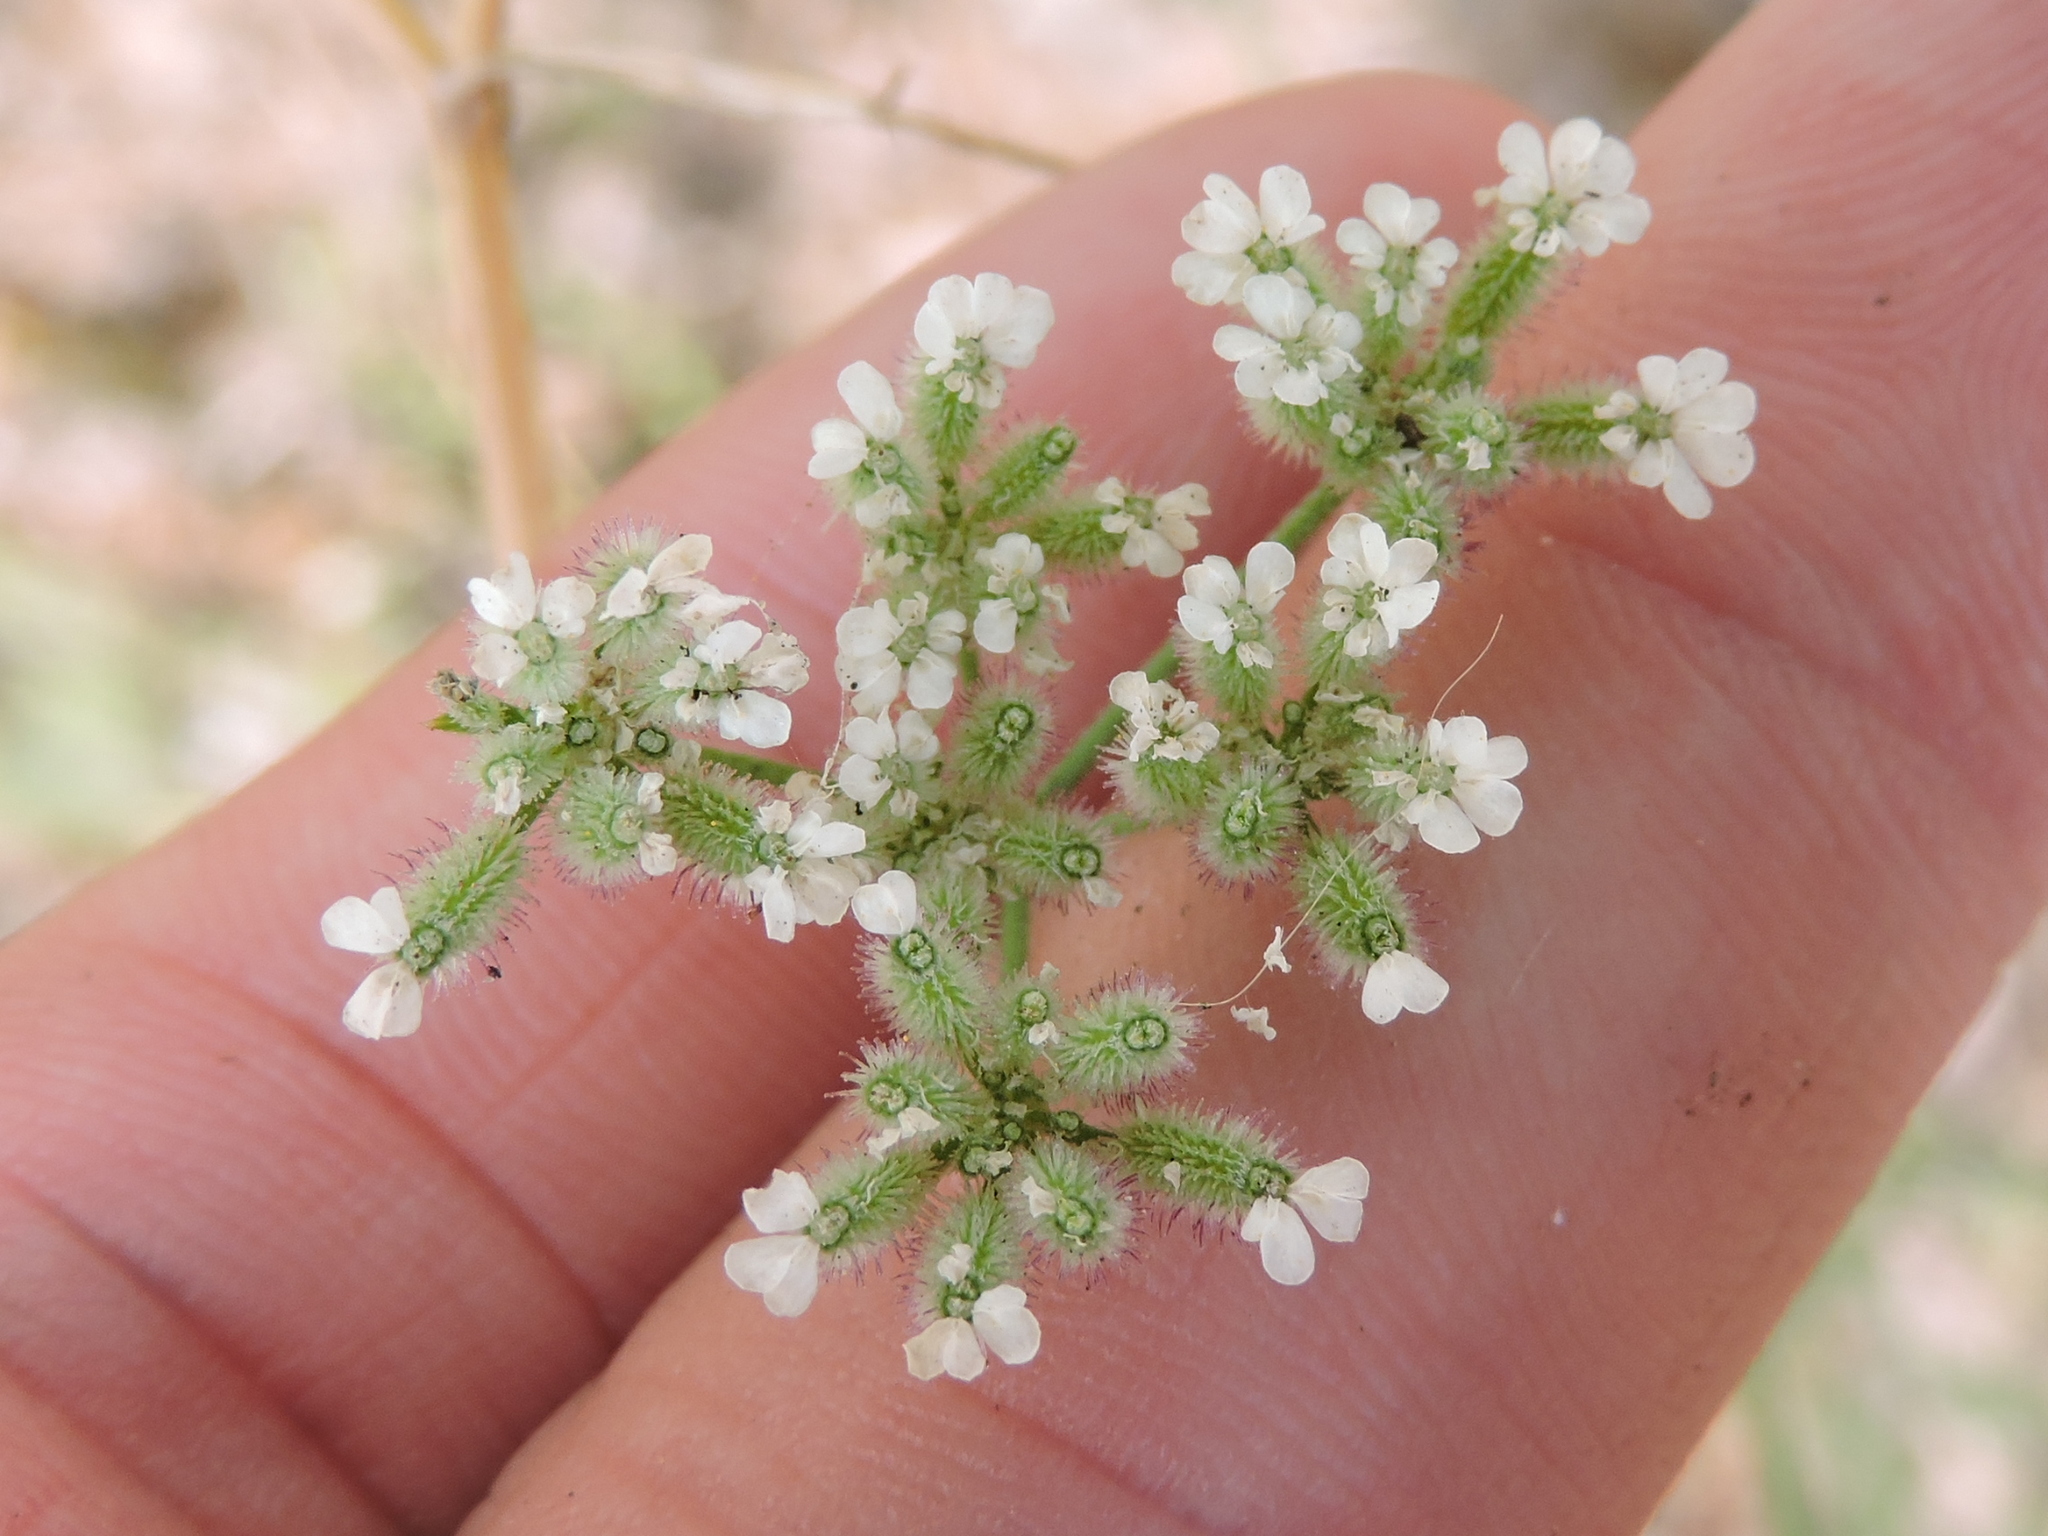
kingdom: Plantae
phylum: Tracheophyta
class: Magnoliopsida
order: Apiales
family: Apiaceae
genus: Torilis
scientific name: Torilis arvensis
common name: Spreading hedge-parsley
